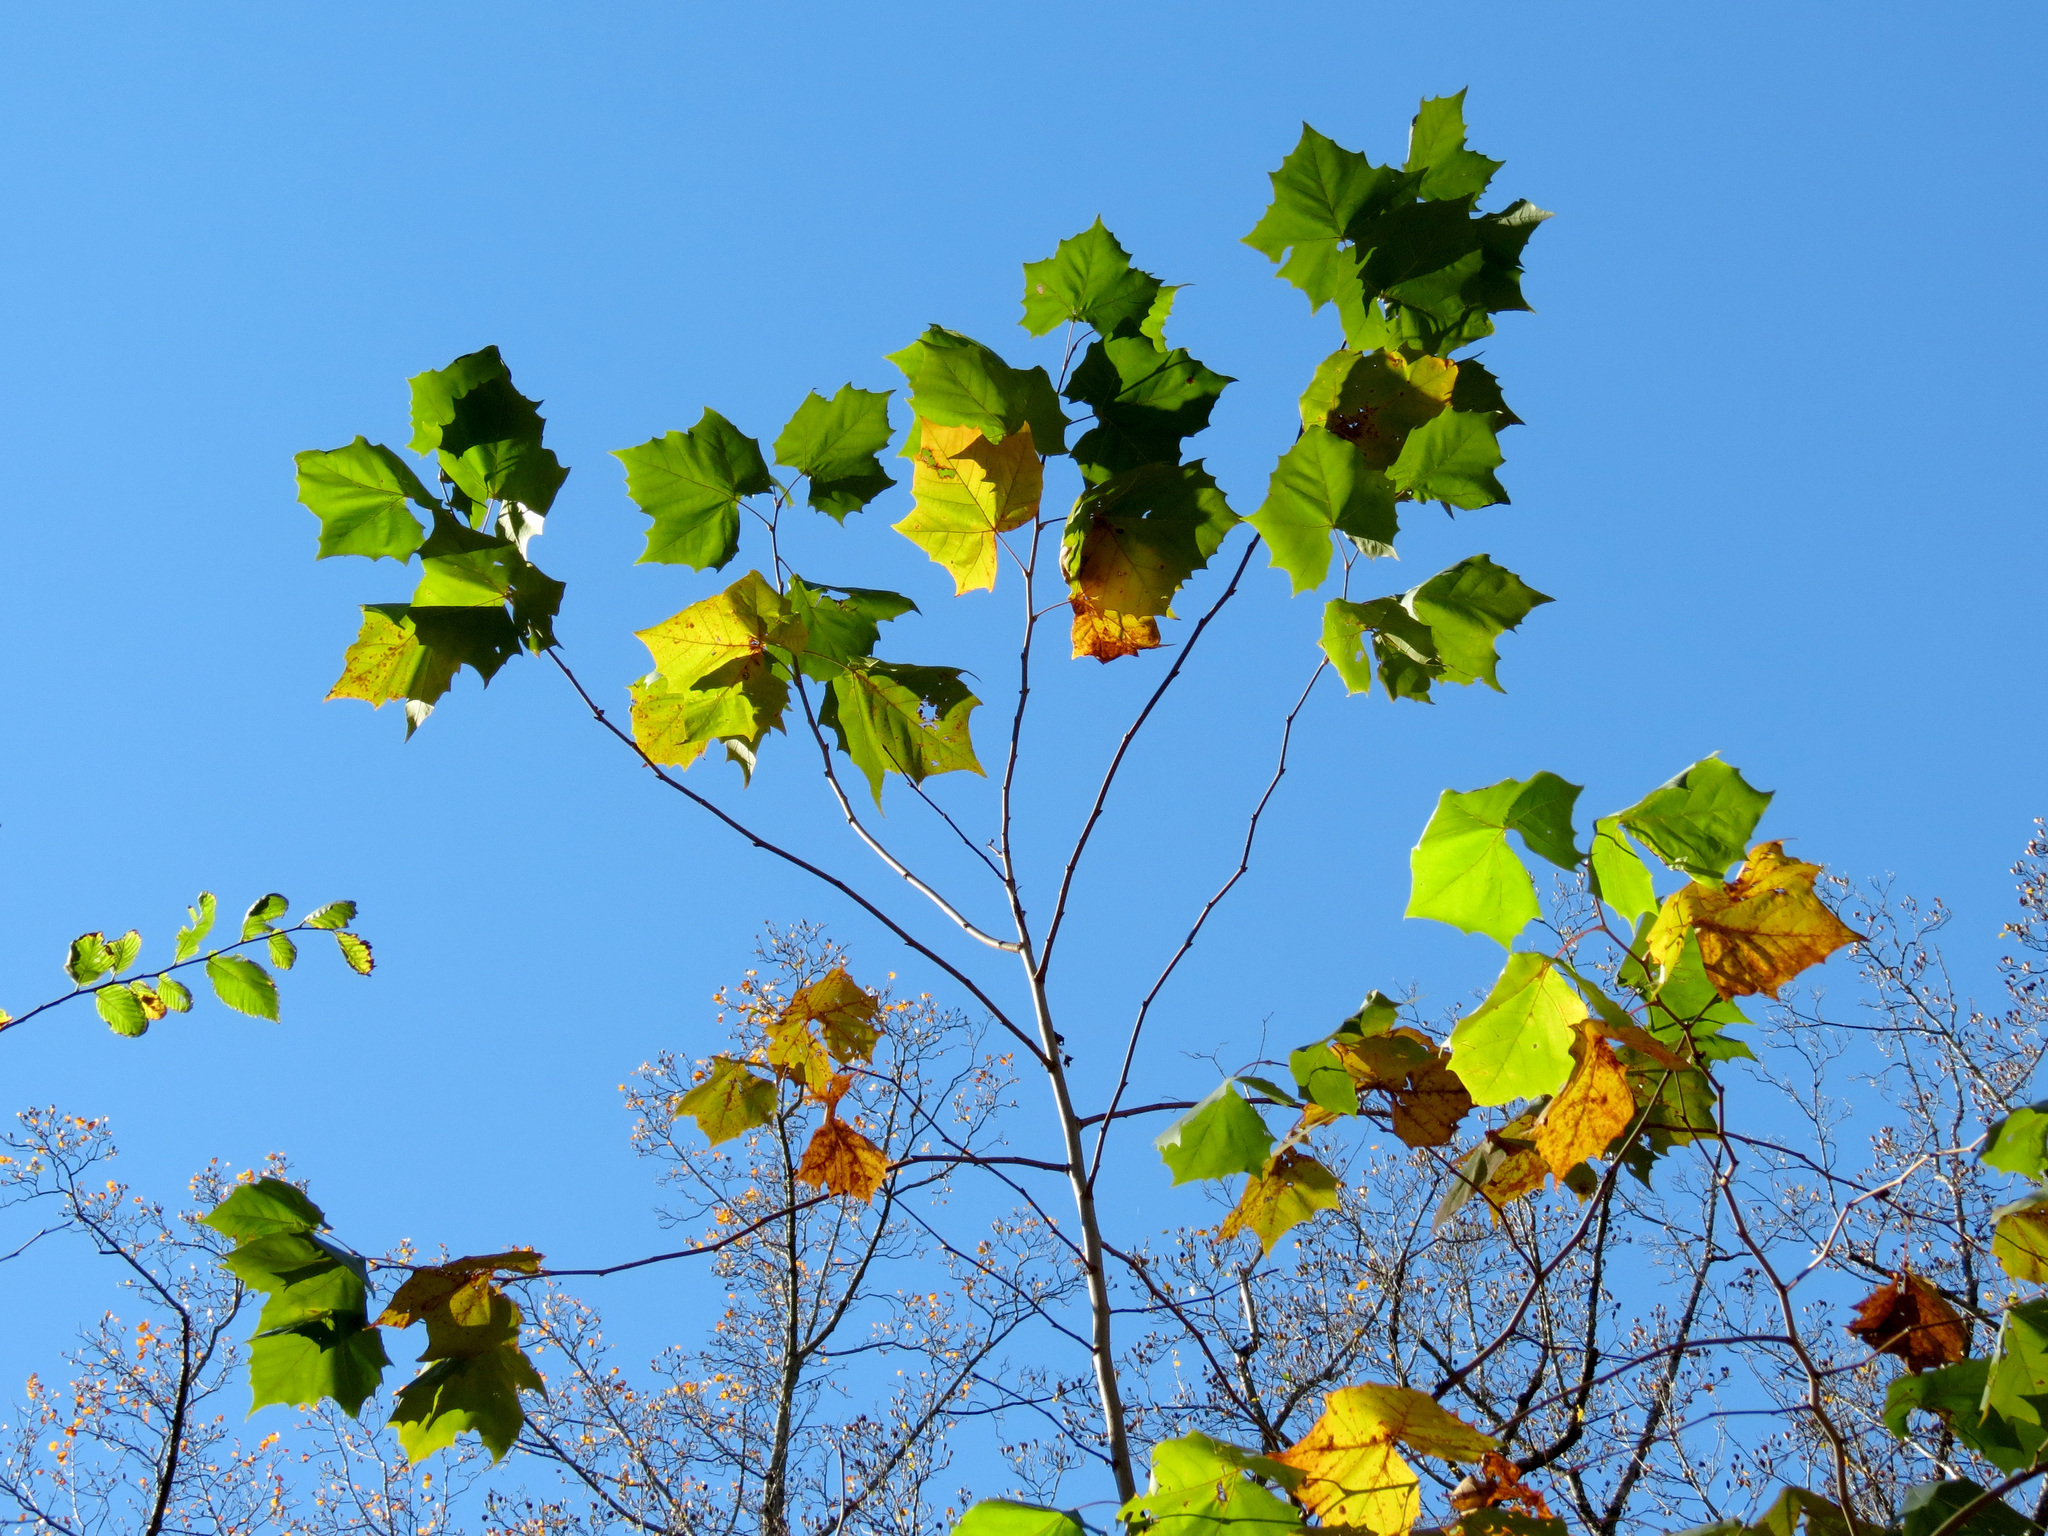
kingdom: Plantae
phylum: Tracheophyta
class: Magnoliopsida
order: Proteales
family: Platanaceae
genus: Platanus
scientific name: Platanus occidentalis
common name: American sycamore
